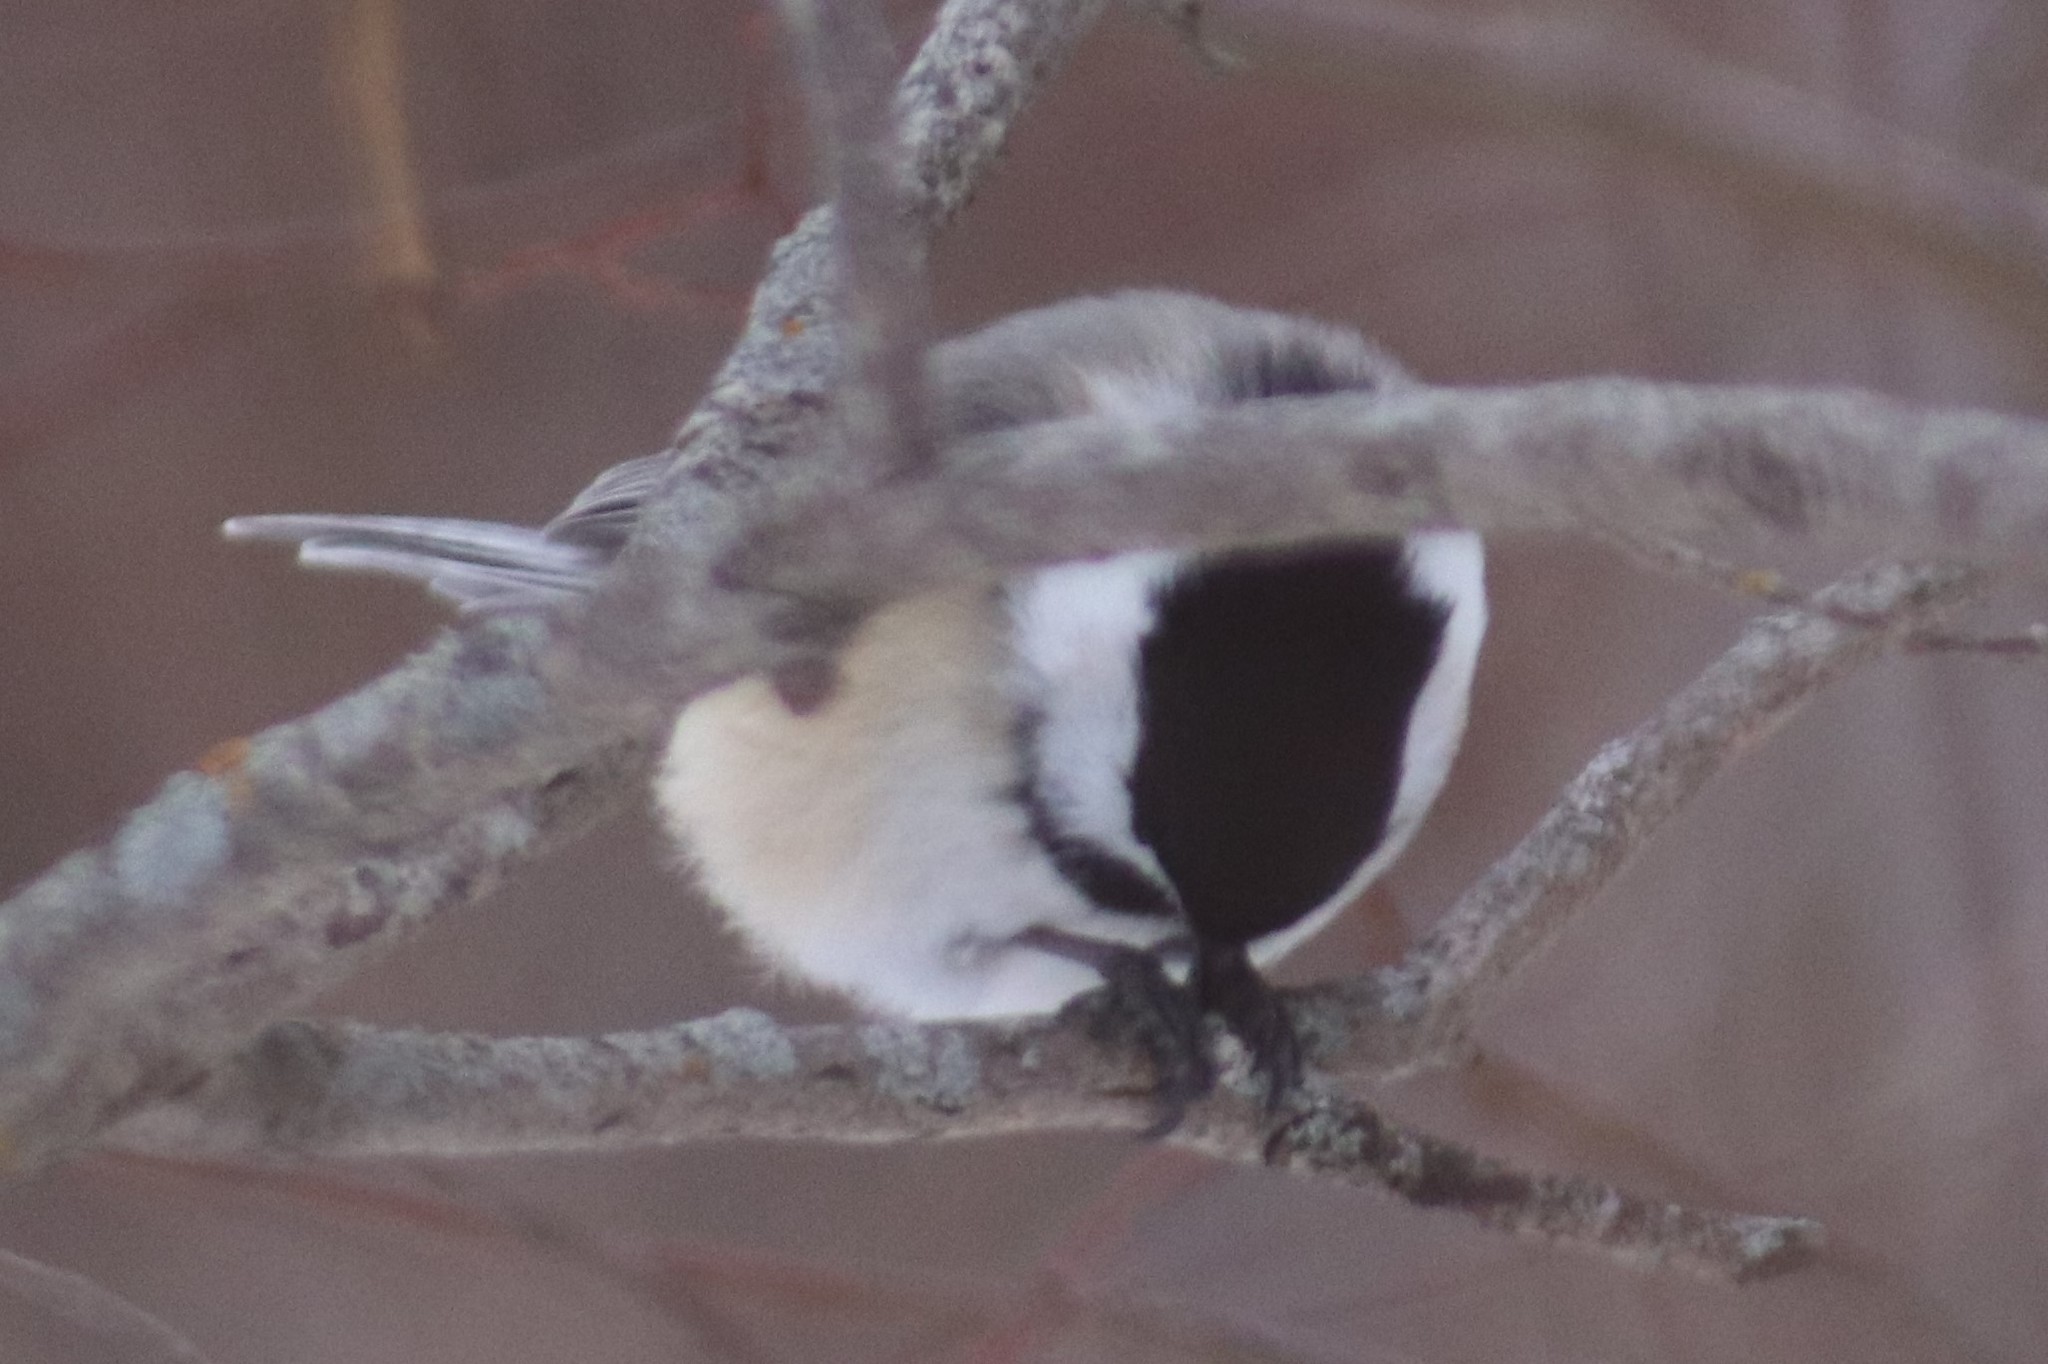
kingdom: Animalia
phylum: Chordata
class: Aves
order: Passeriformes
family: Paridae
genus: Poecile
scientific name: Poecile atricapillus
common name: Black-capped chickadee
